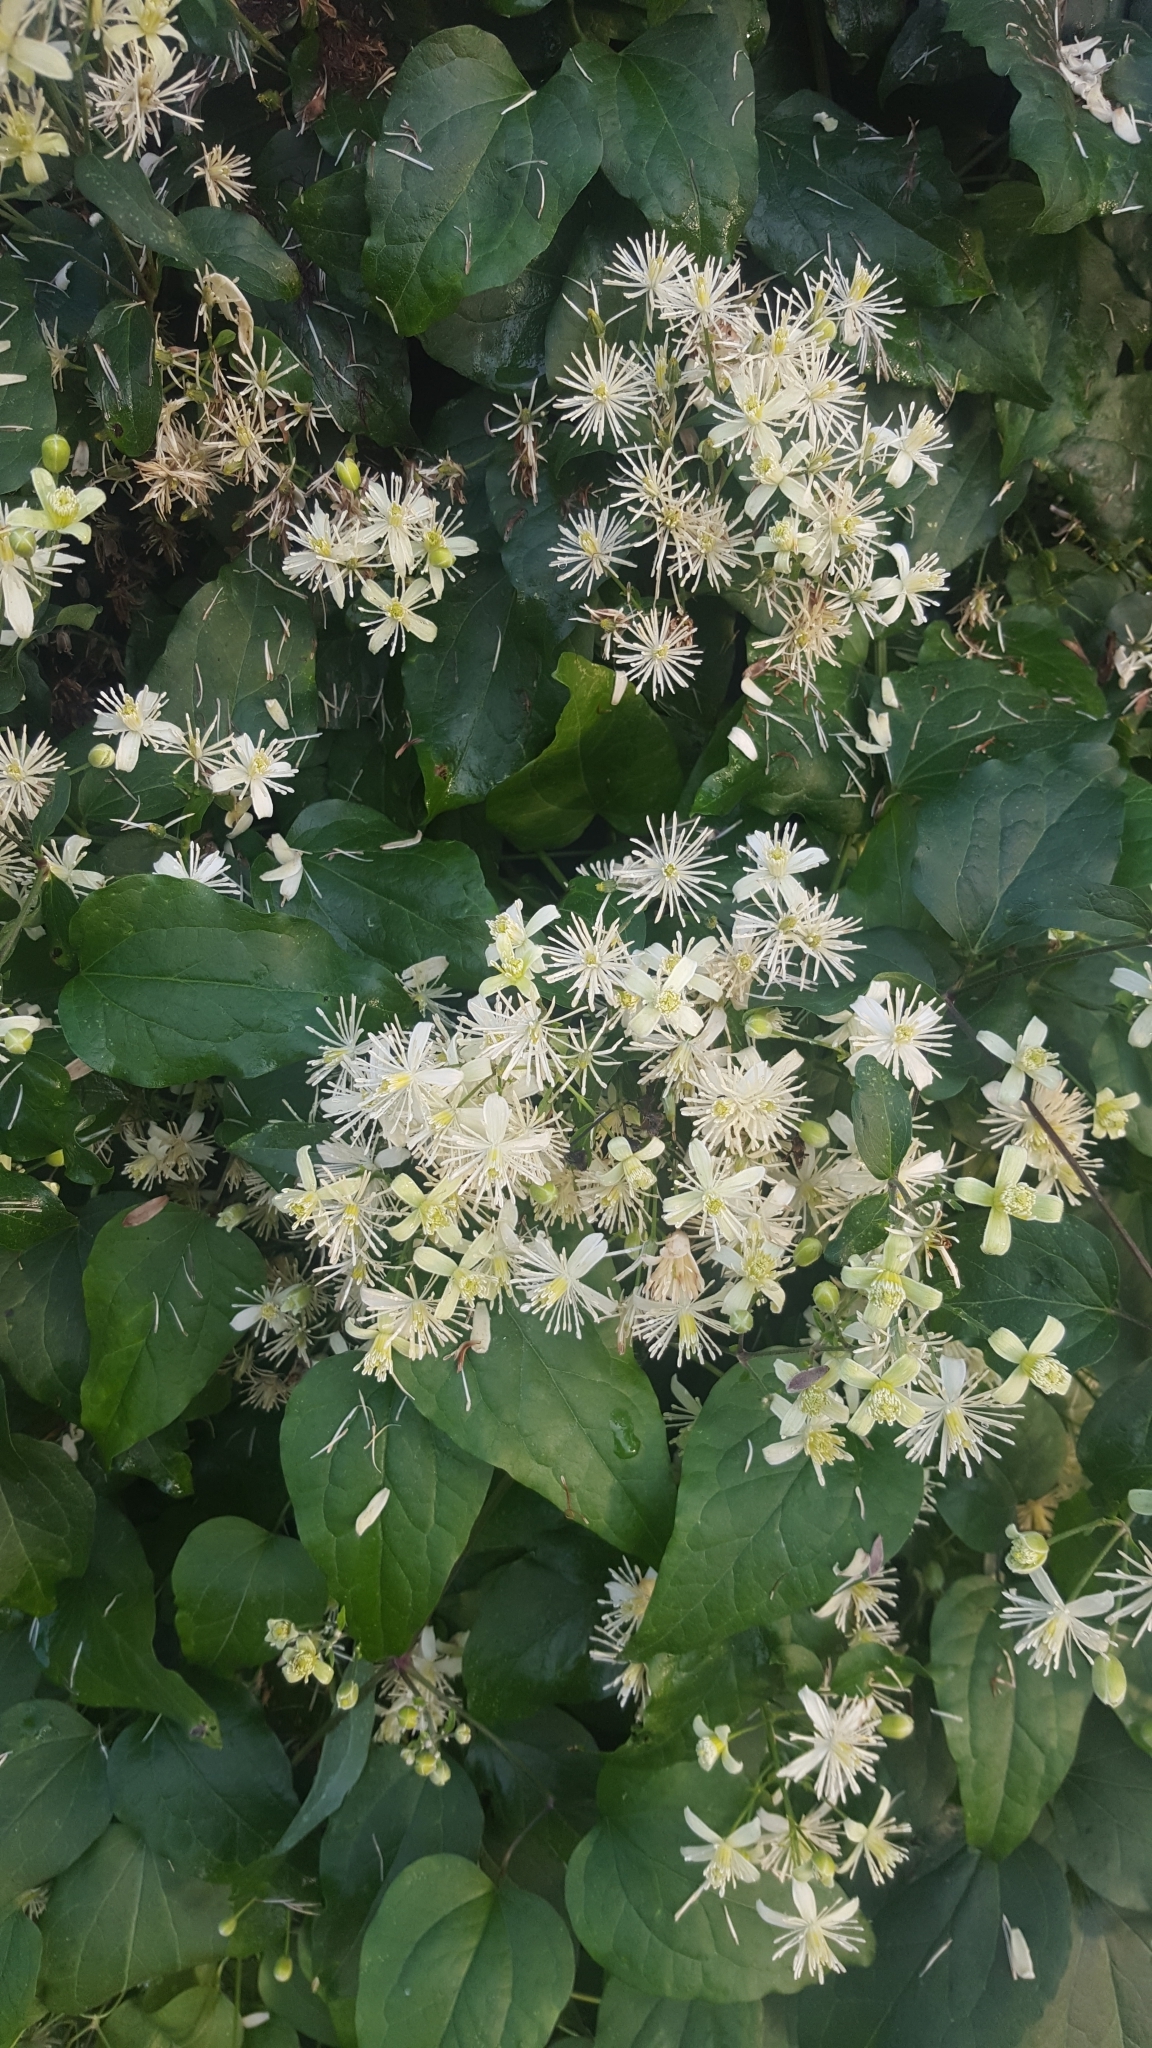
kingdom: Plantae
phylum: Tracheophyta
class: Magnoliopsida
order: Ranunculales
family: Ranunculaceae
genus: Clematis
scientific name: Clematis vitalba
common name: Evergreen clematis
